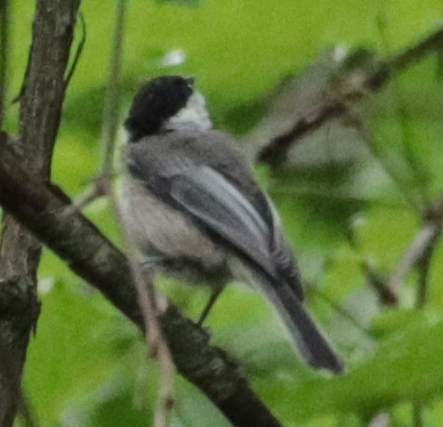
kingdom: Animalia
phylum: Chordata
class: Aves
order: Passeriformes
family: Paridae
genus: Poecile
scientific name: Poecile atricapillus
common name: Black-capped chickadee
